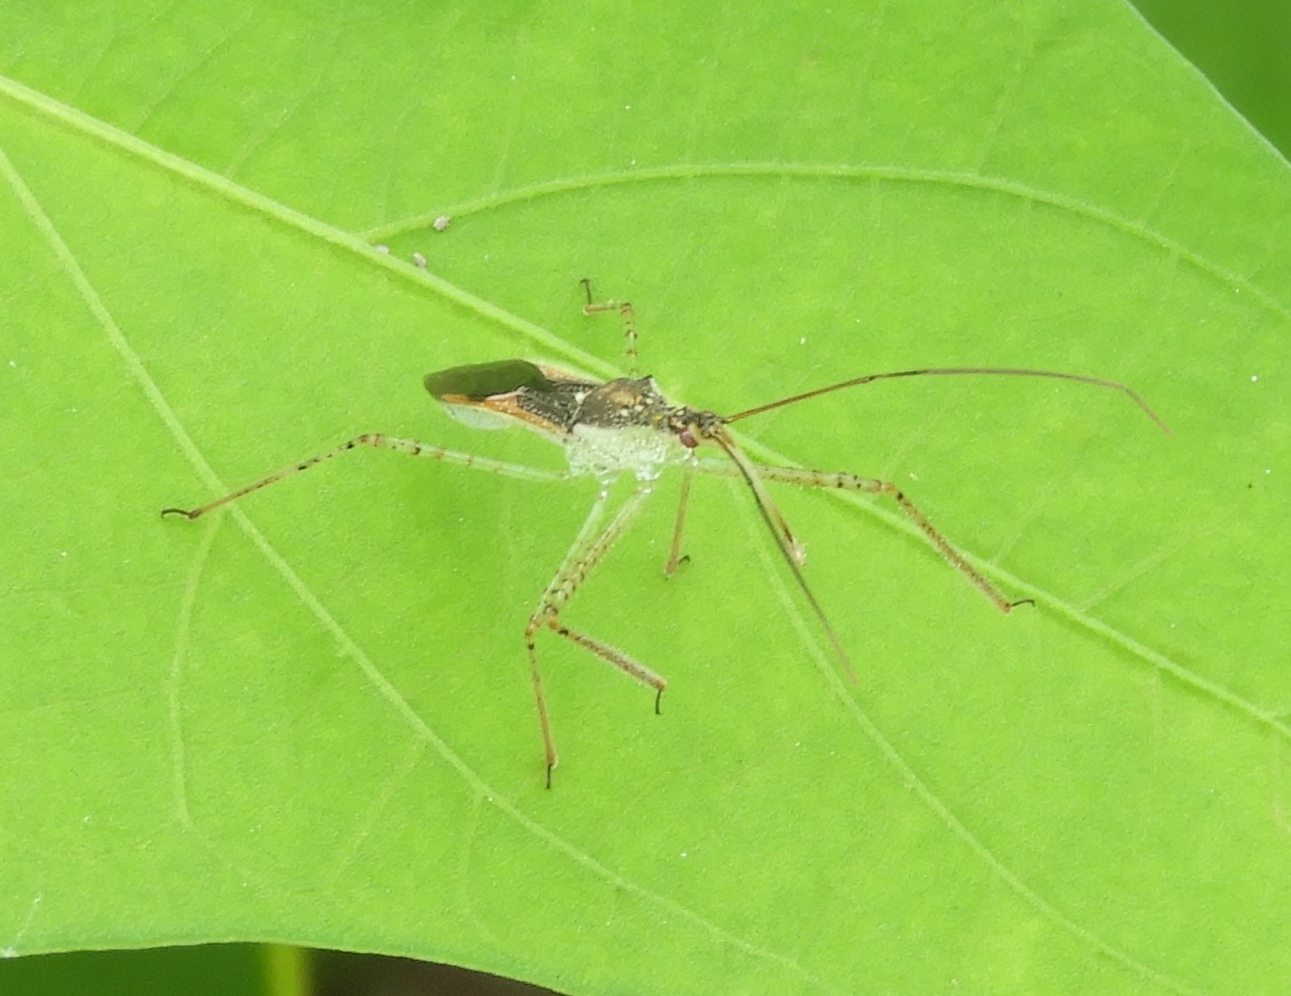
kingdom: Animalia
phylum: Arthropoda
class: Insecta
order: Hemiptera
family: Reduviidae
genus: Zelus
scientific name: Zelus
